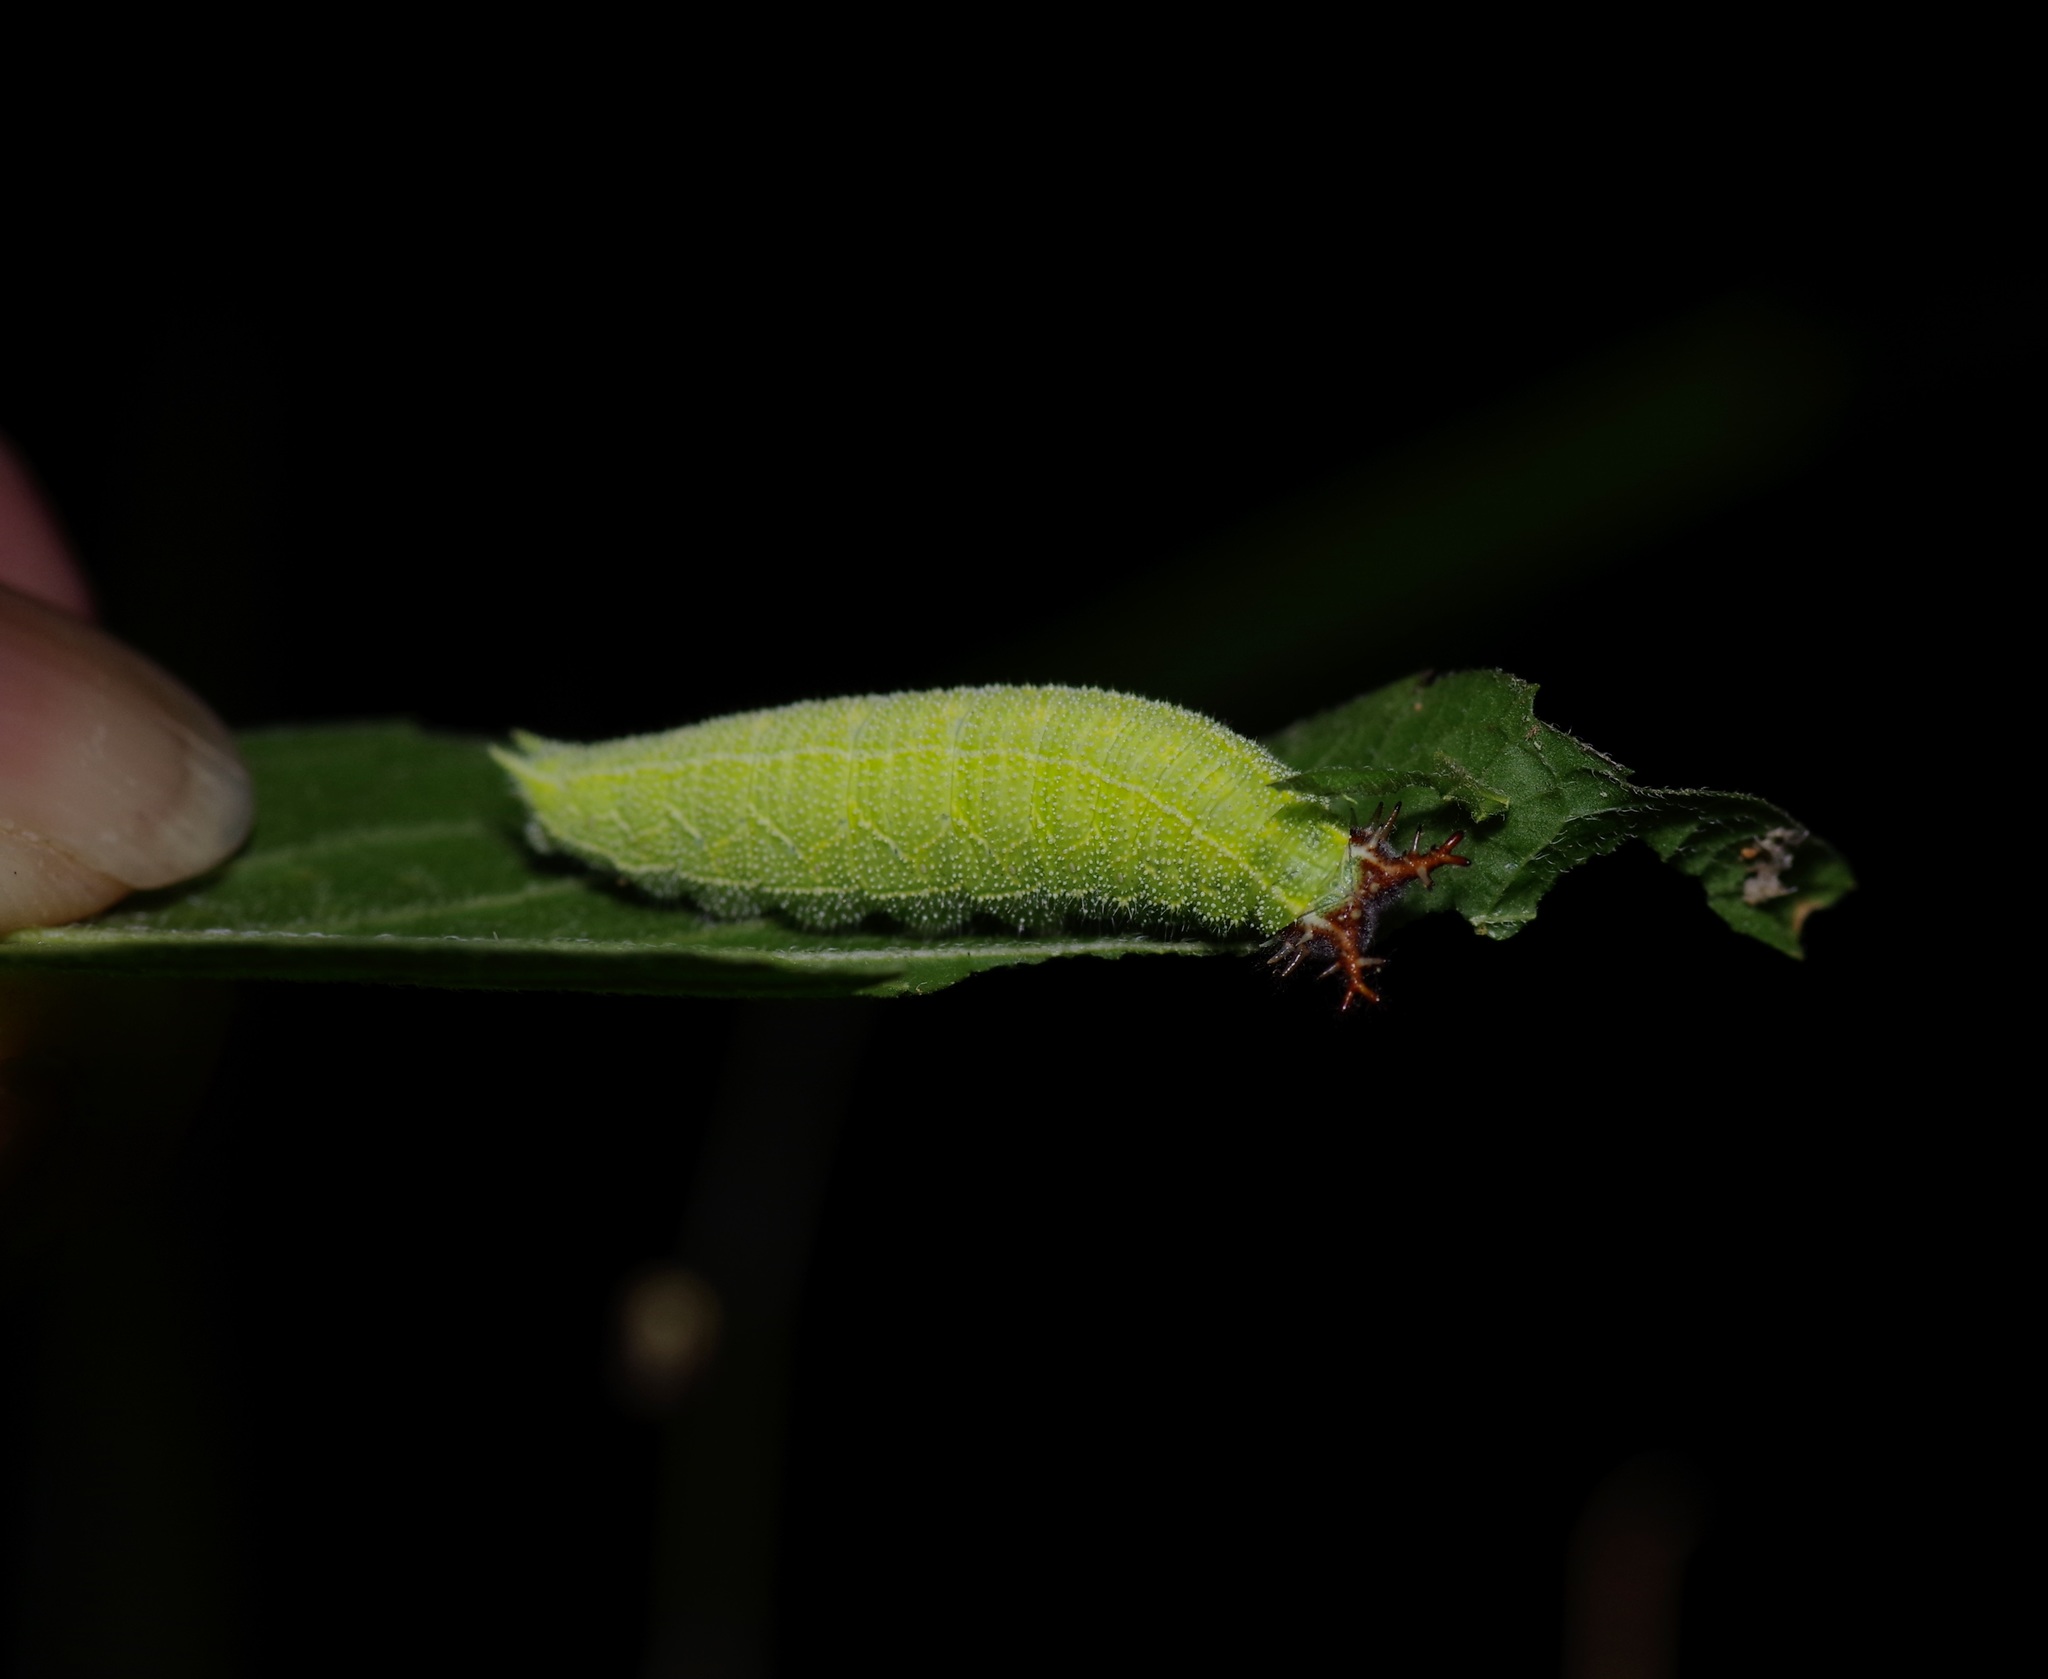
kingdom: Animalia
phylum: Arthropoda
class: Insecta
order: Lepidoptera
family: Nymphalidae
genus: Asterocampa
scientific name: Asterocampa celtis
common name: Hackberry emperor
